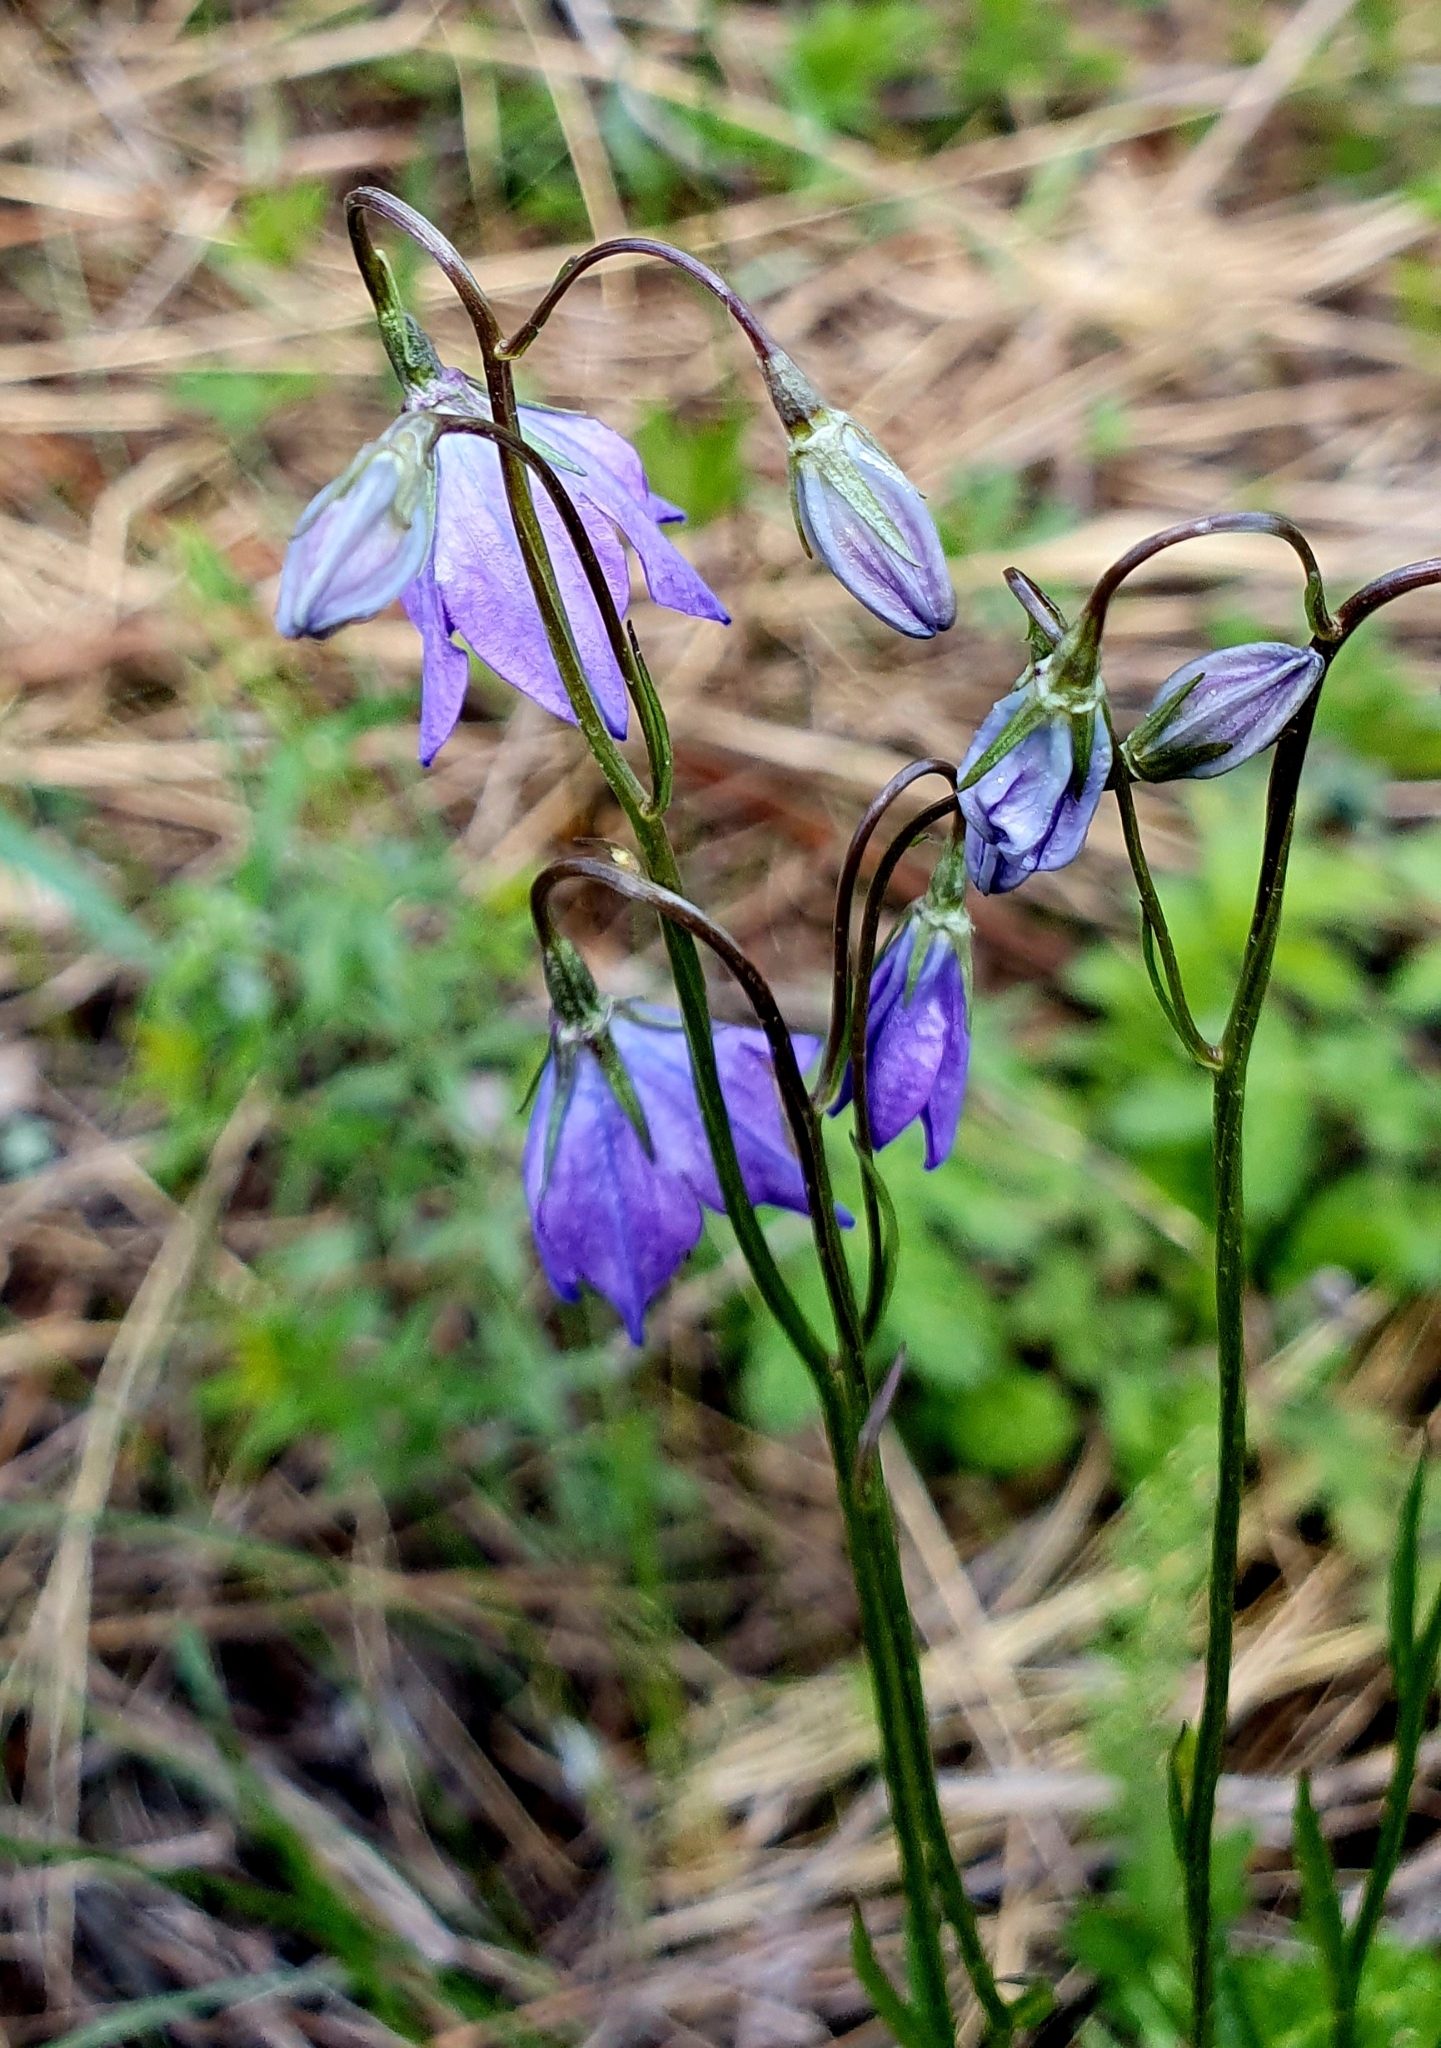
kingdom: Plantae
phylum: Tracheophyta
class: Magnoliopsida
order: Asterales
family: Campanulaceae
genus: Campanula
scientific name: Campanula stevenii
